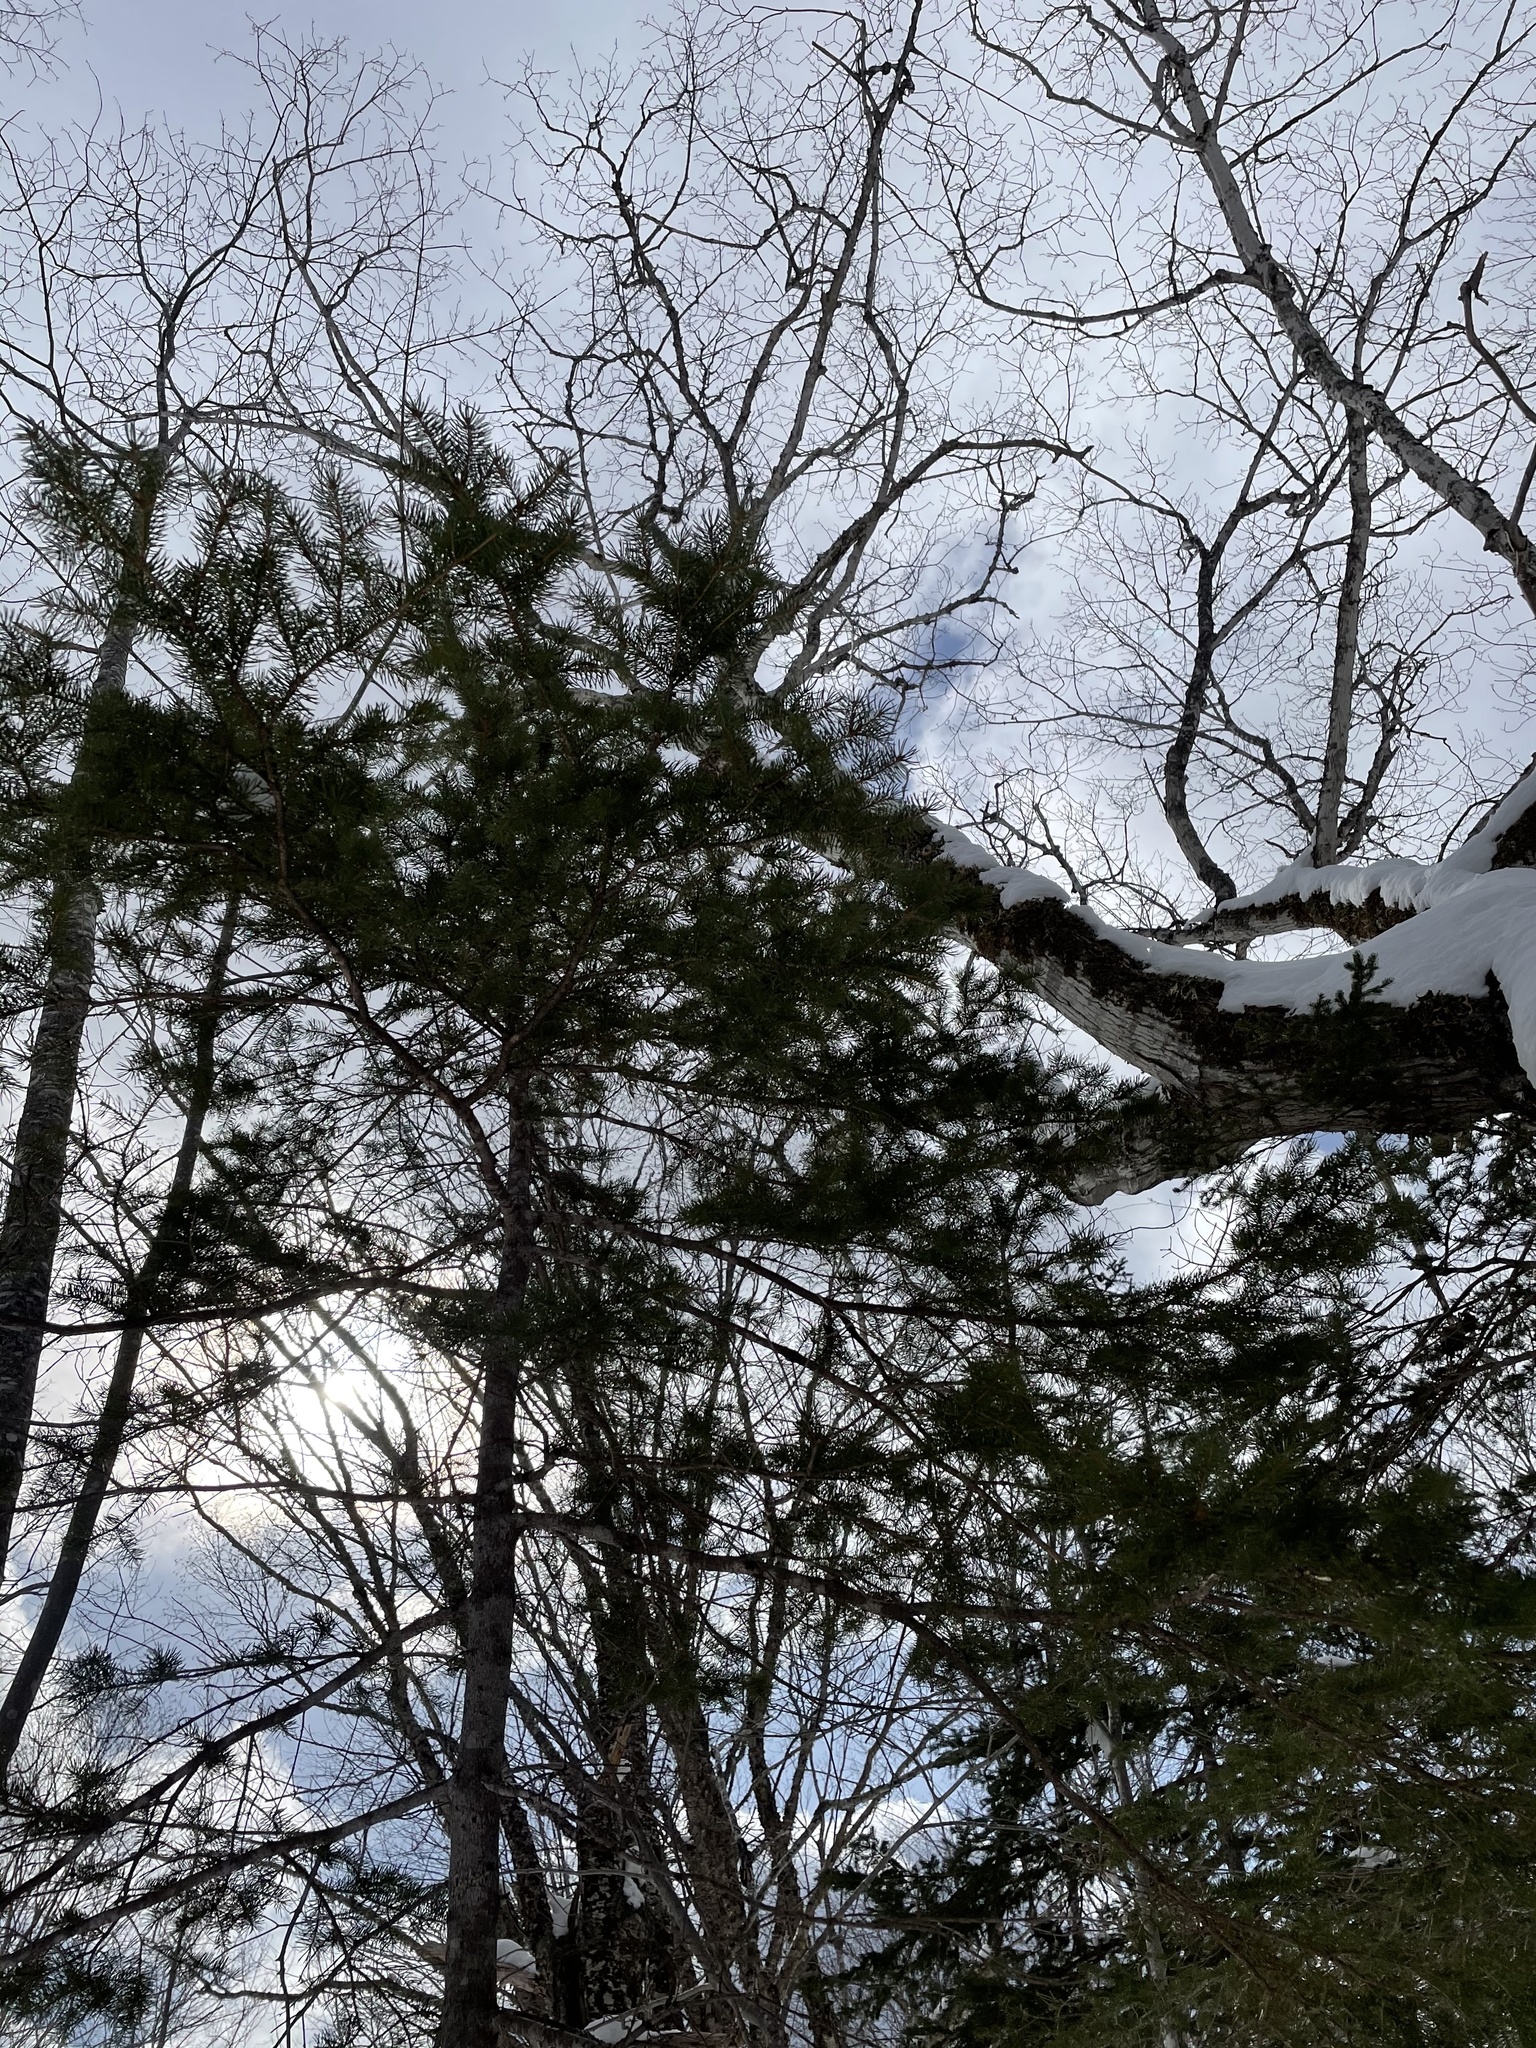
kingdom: Plantae
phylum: Tracheophyta
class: Pinopsida
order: Pinales
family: Pinaceae
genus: Picea
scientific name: Picea glauca
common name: White spruce
